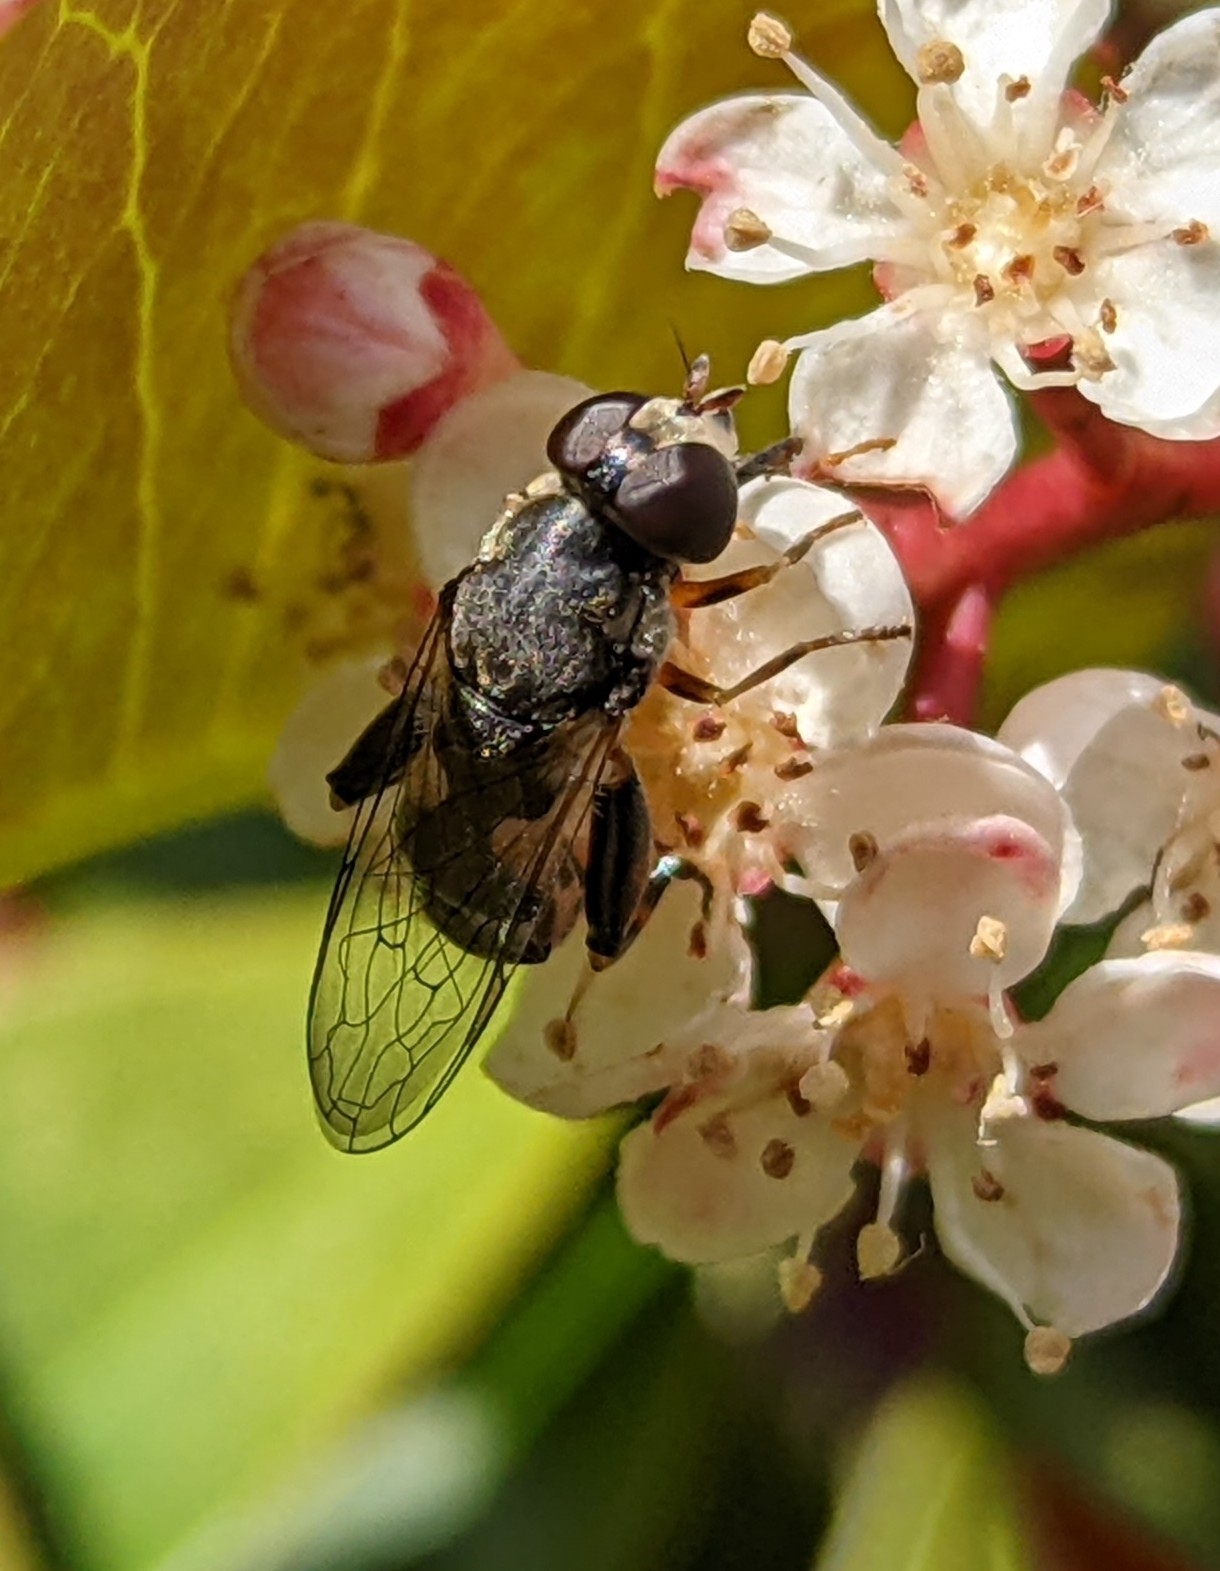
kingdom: Animalia
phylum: Arthropoda
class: Insecta
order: Diptera
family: Syrphidae
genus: Syritta
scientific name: Syritta pipiens
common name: Hover fly
